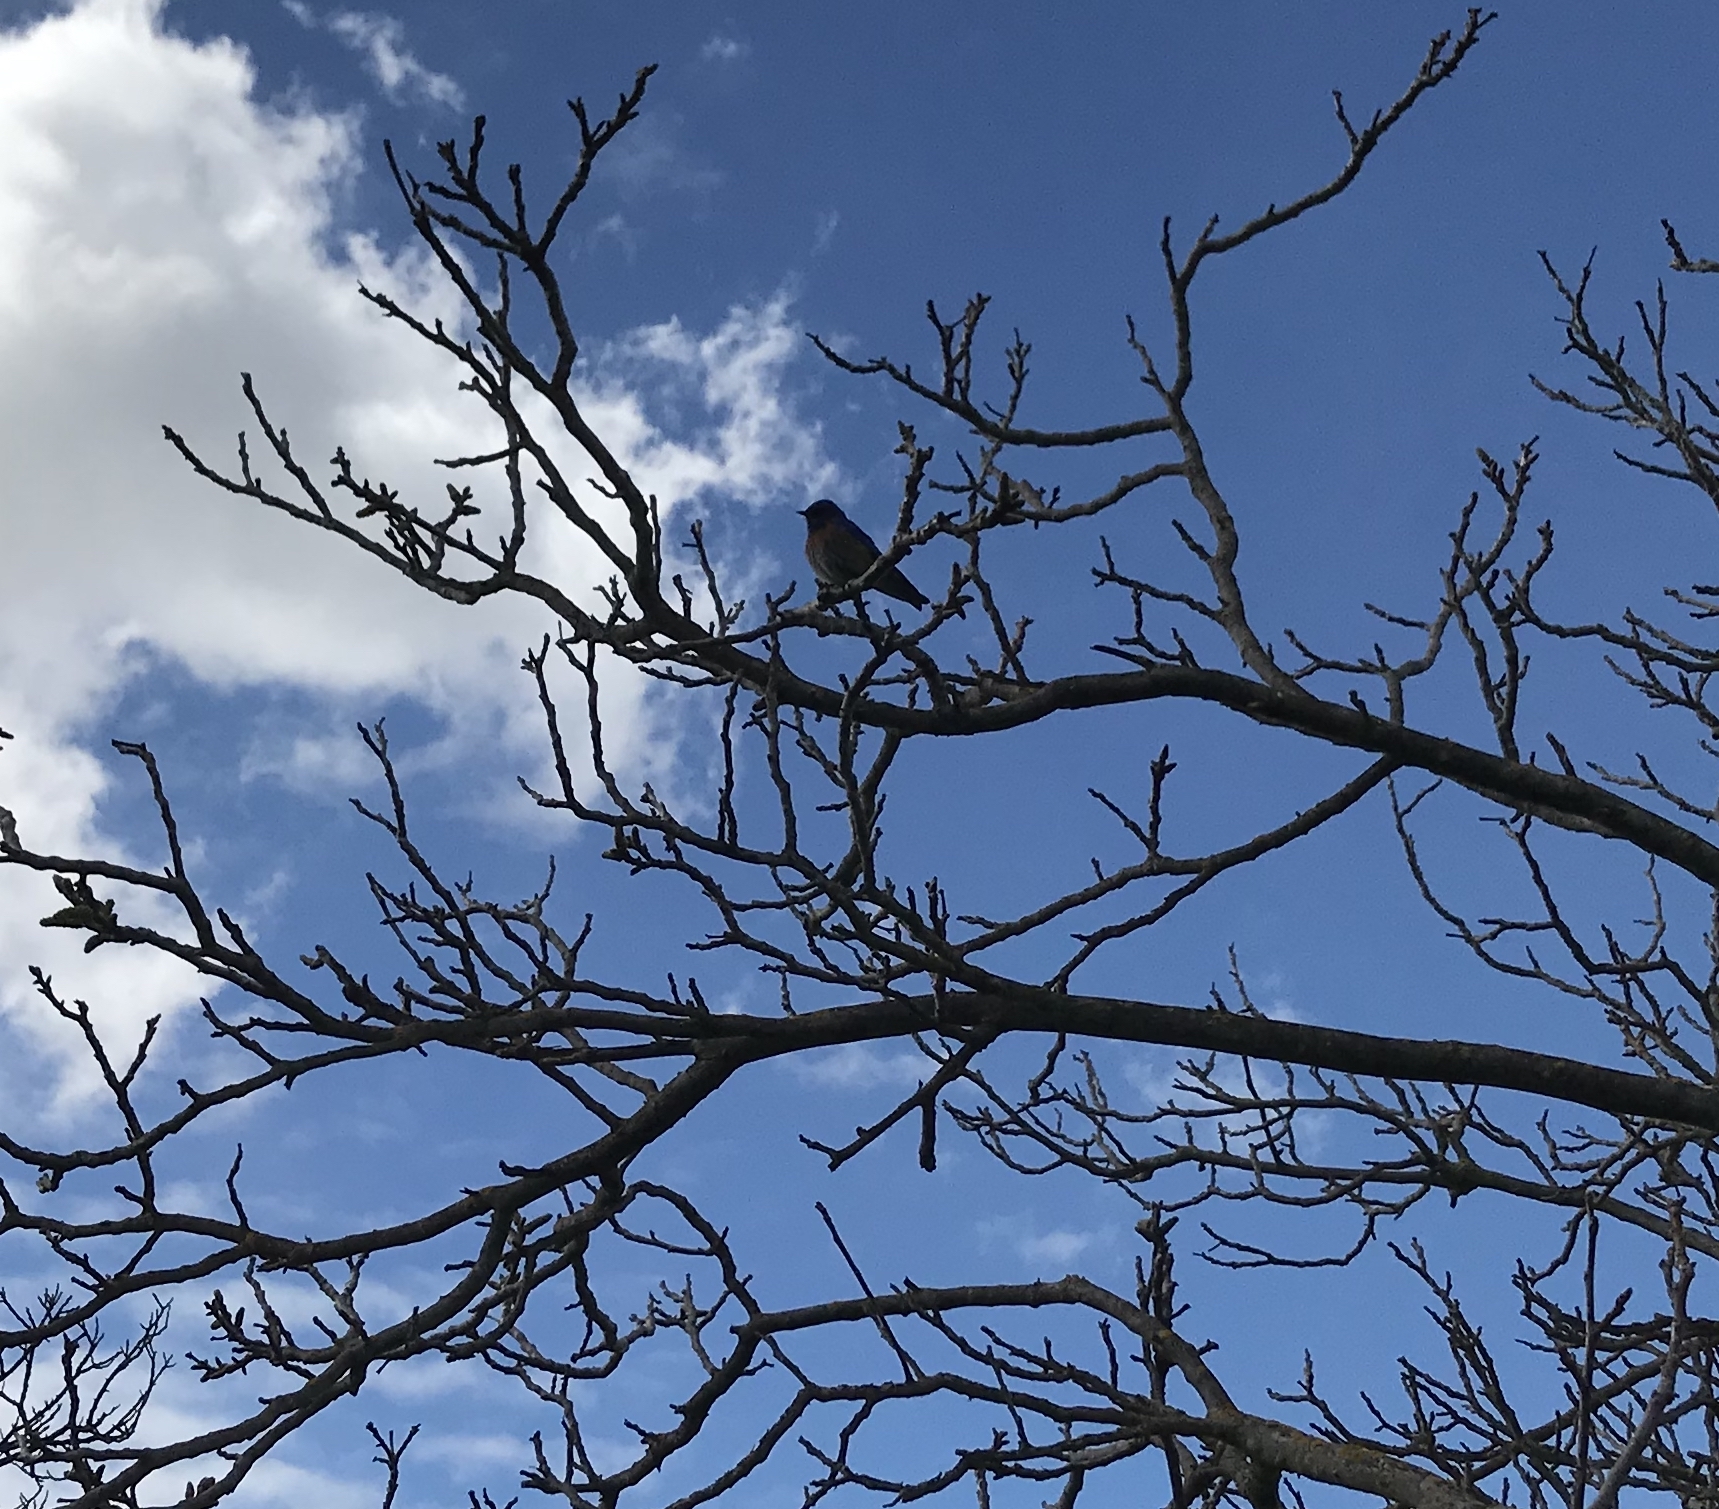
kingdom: Animalia
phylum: Chordata
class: Aves
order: Passeriformes
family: Turdidae
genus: Sialia
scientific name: Sialia mexicana
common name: Western bluebird
